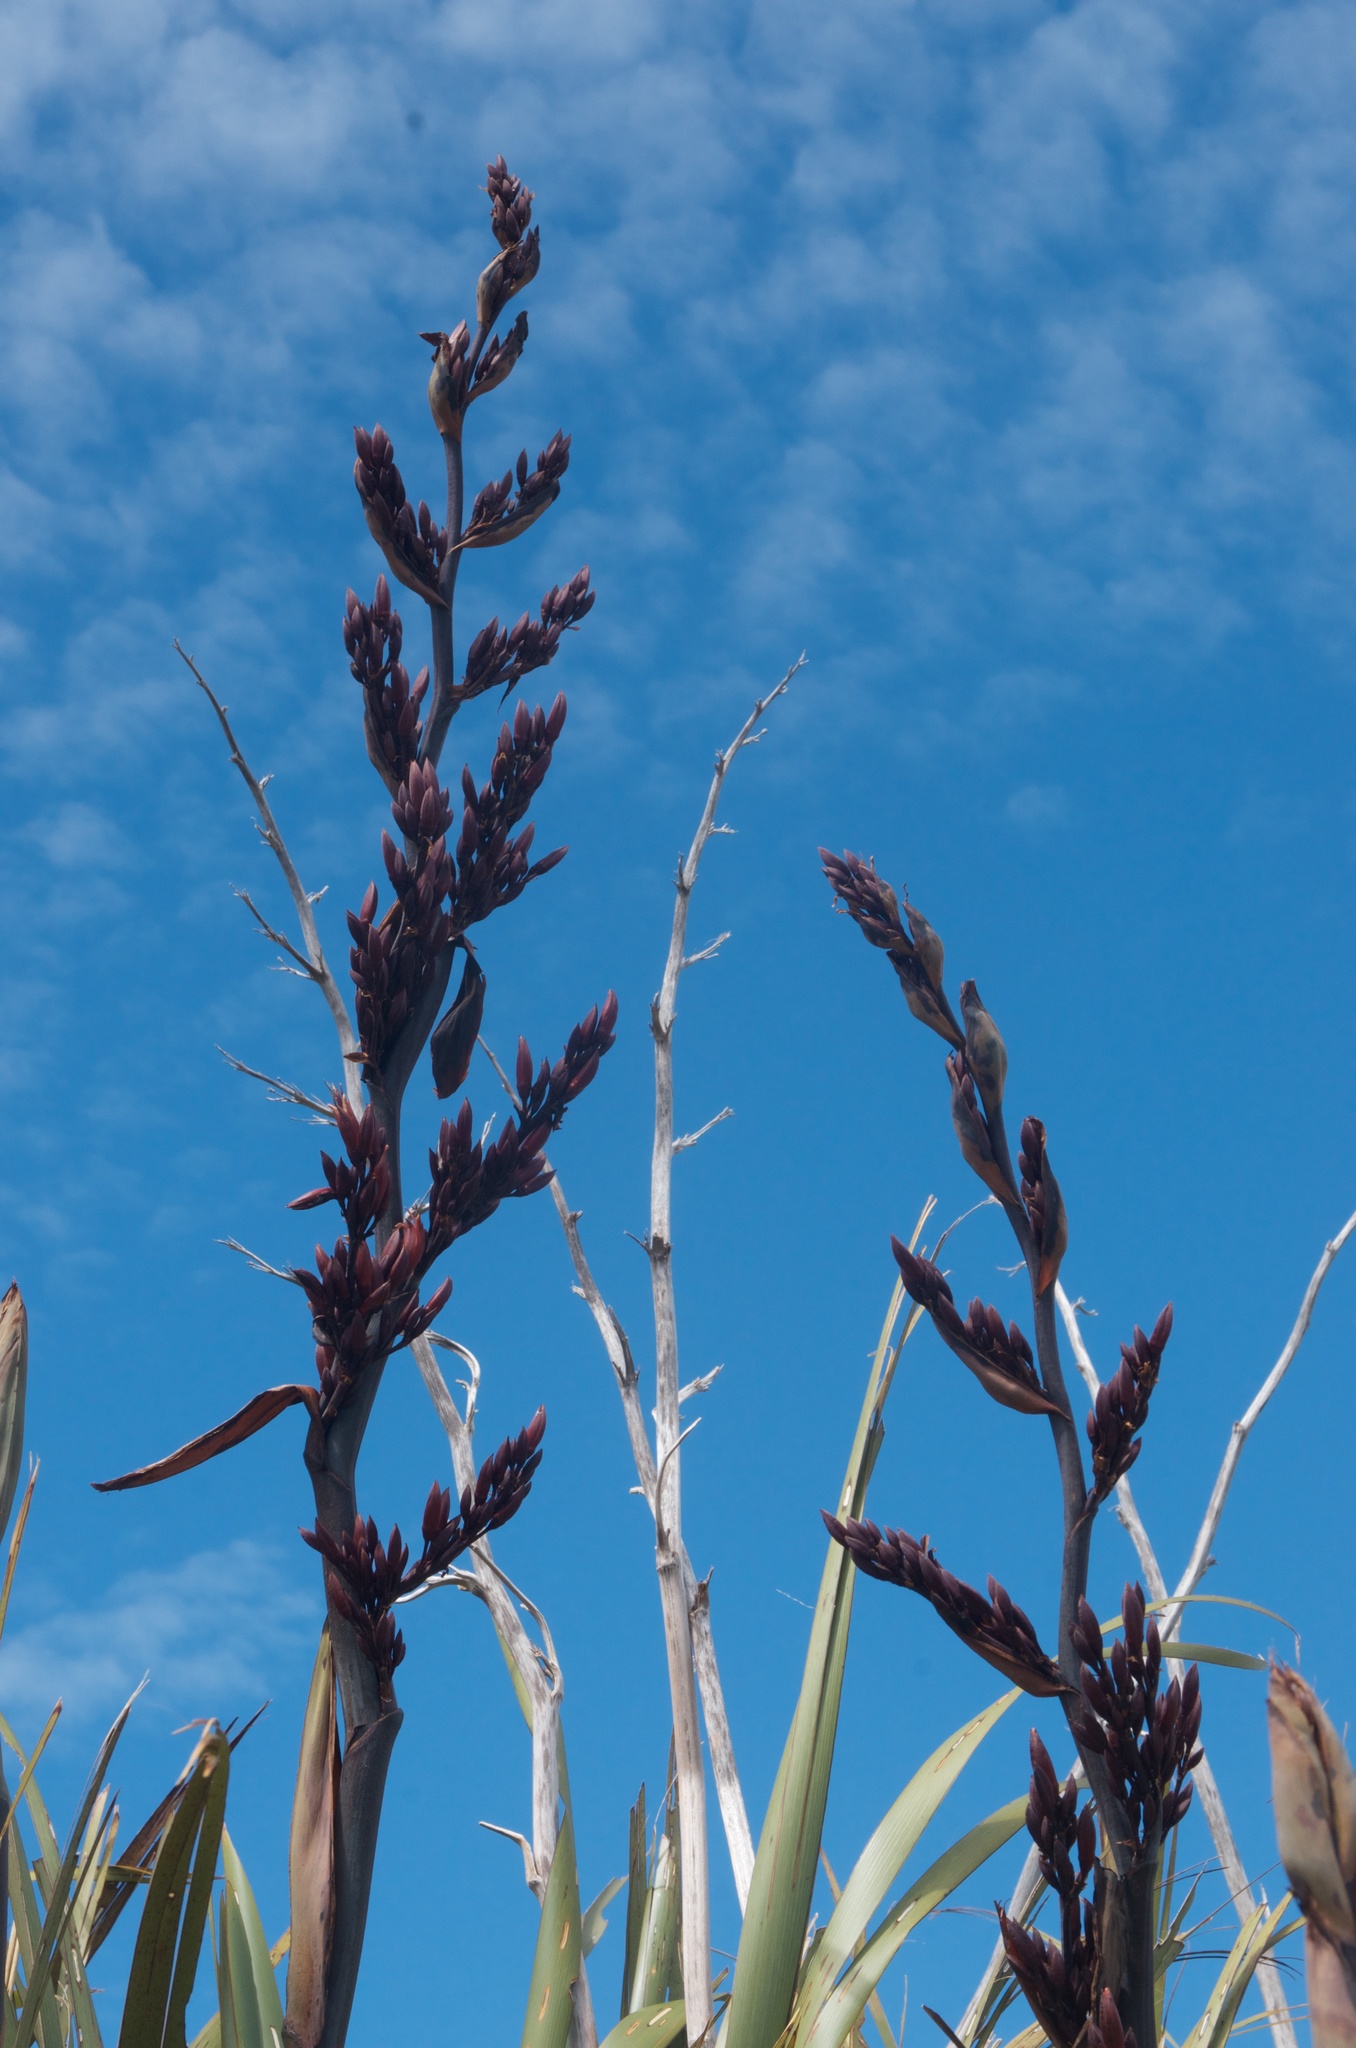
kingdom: Plantae
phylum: Tracheophyta
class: Liliopsida
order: Asparagales
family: Asphodelaceae
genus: Phormium
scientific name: Phormium tenax
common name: New zealand flax
